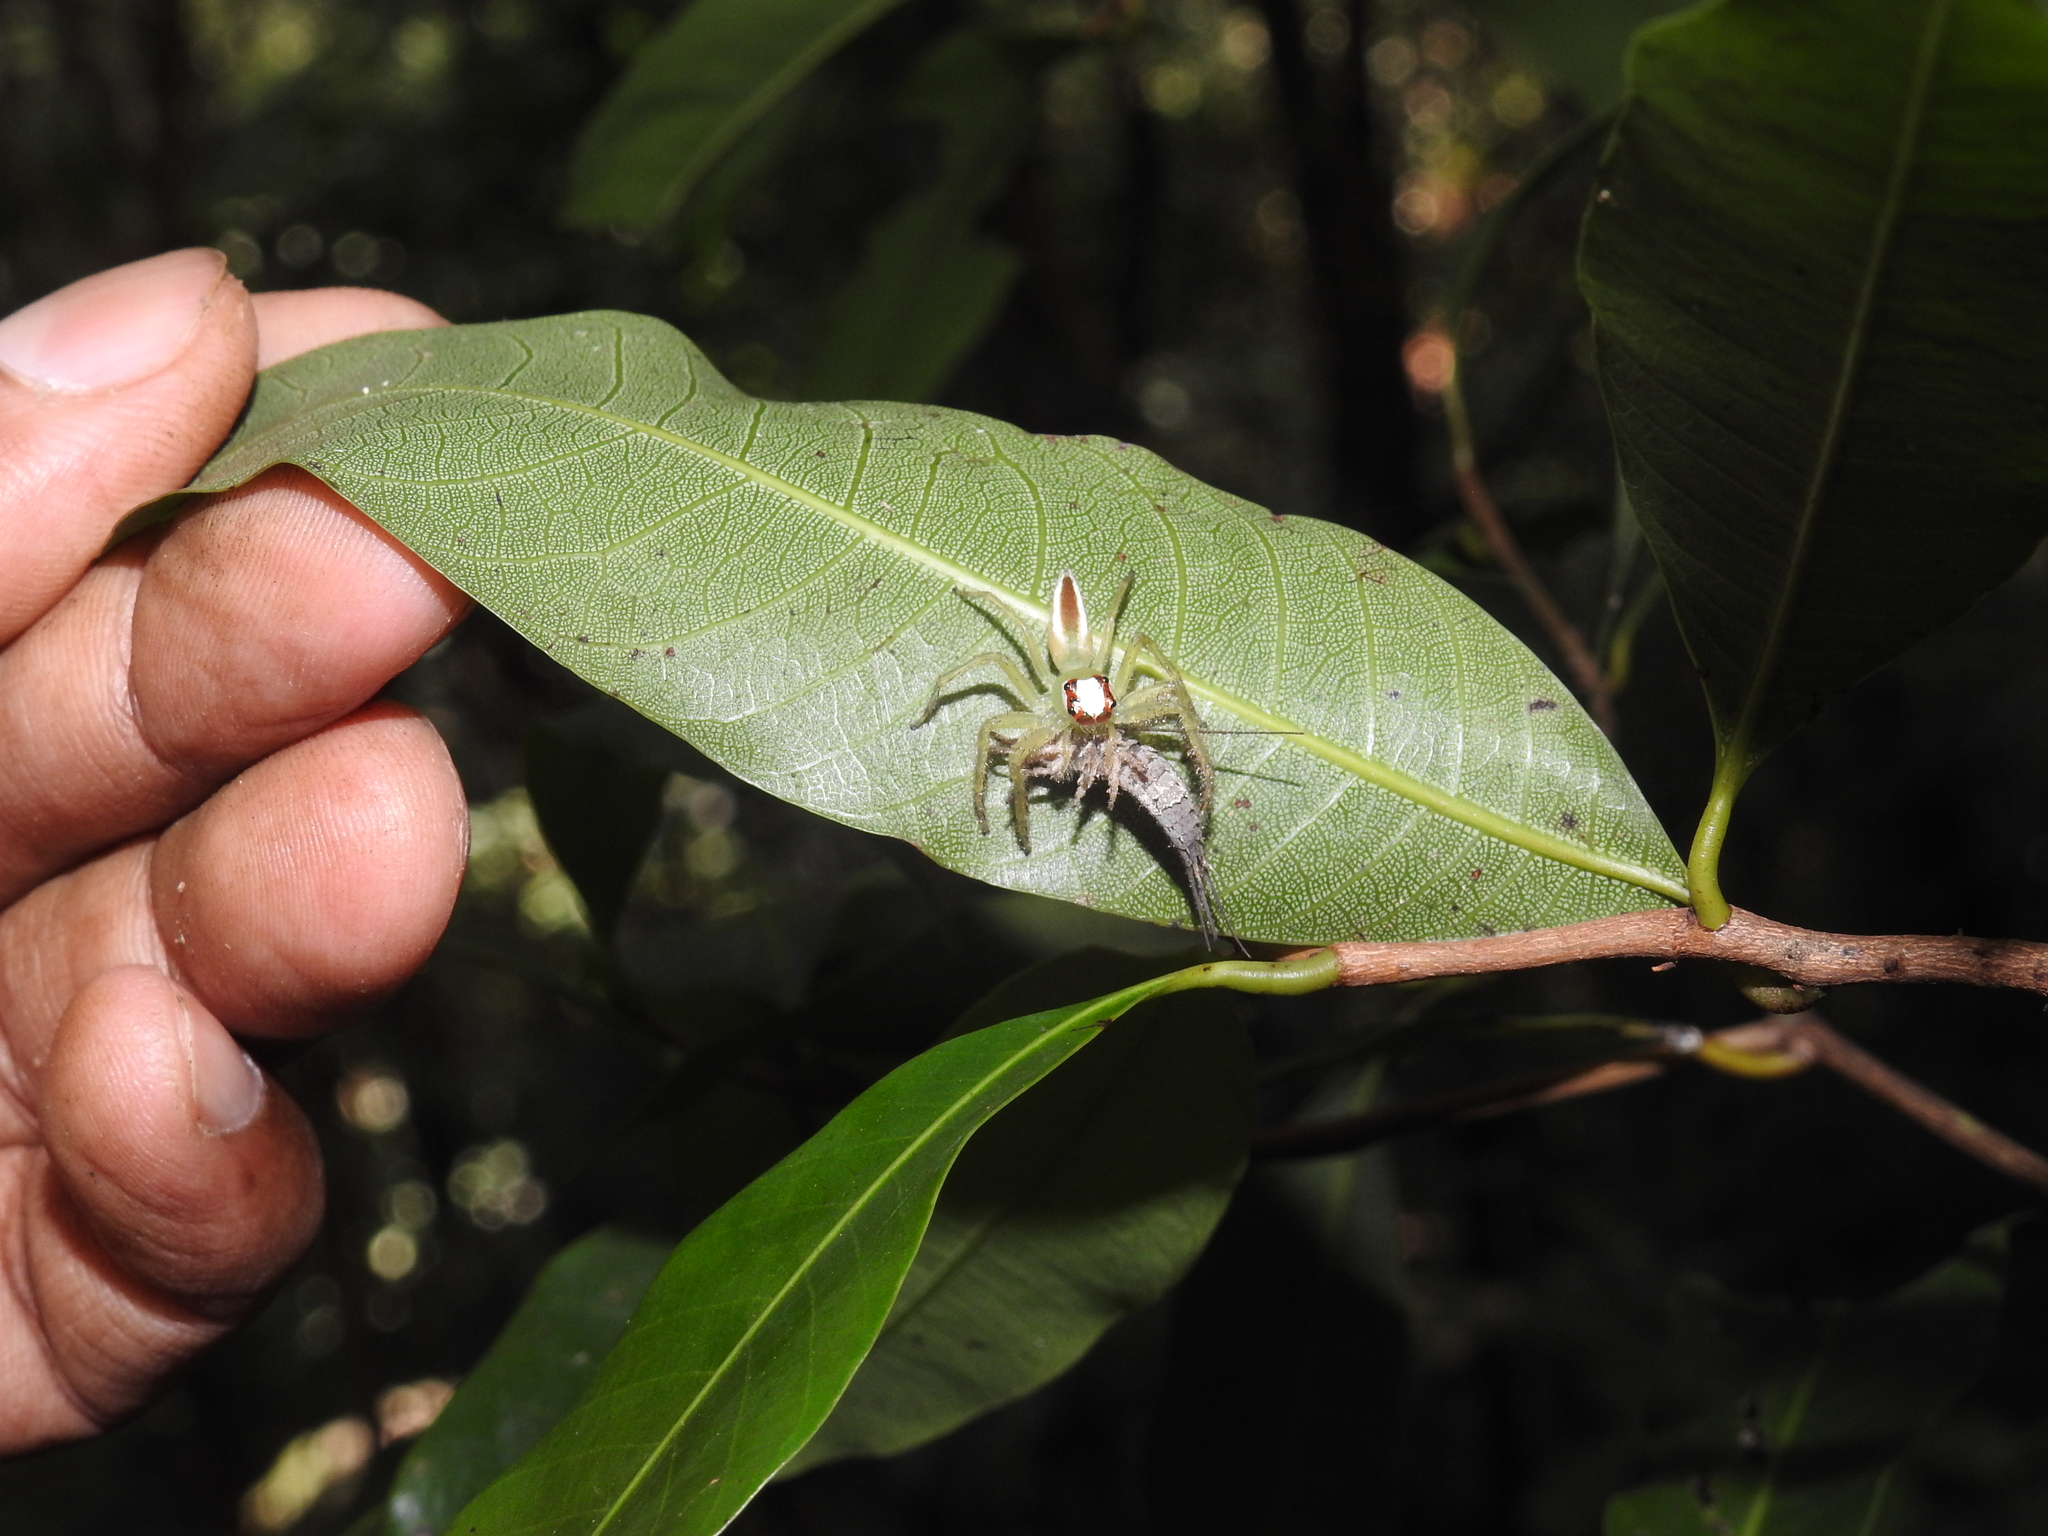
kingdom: Animalia
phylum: Arthropoda
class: Arachnida
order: Araneae
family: Salticidae
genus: Telamonia
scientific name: Telamonia dimidiata
